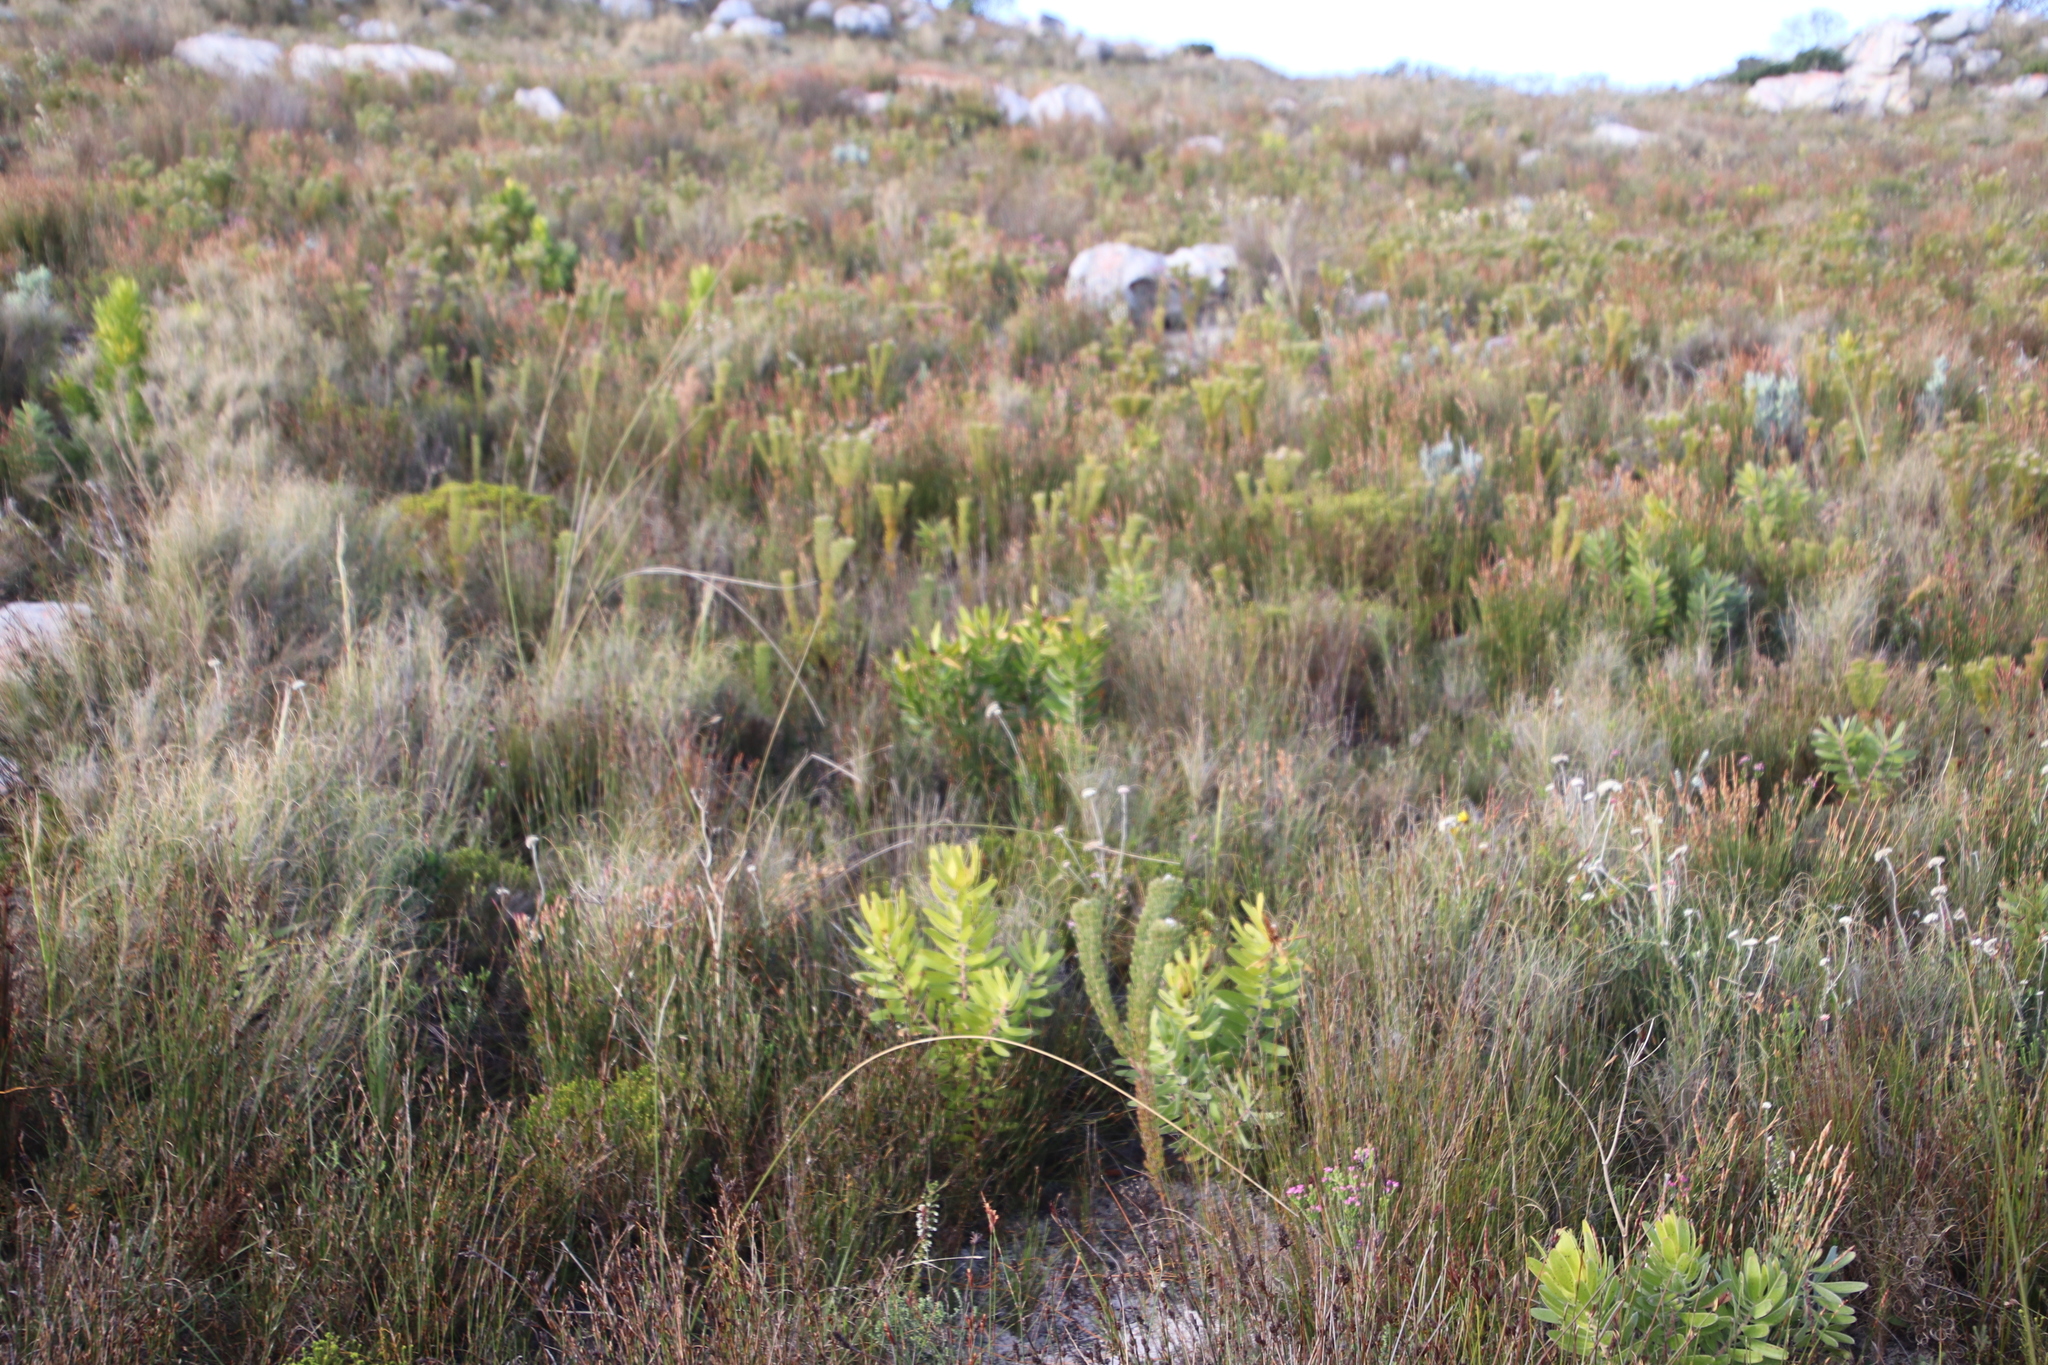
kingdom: Plantae
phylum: Tracheophyta
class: Magnoliopsida
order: Proteales
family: Proteaceae
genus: Leucadendron
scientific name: Leucadendron laureolum
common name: Golden sunshinebush
